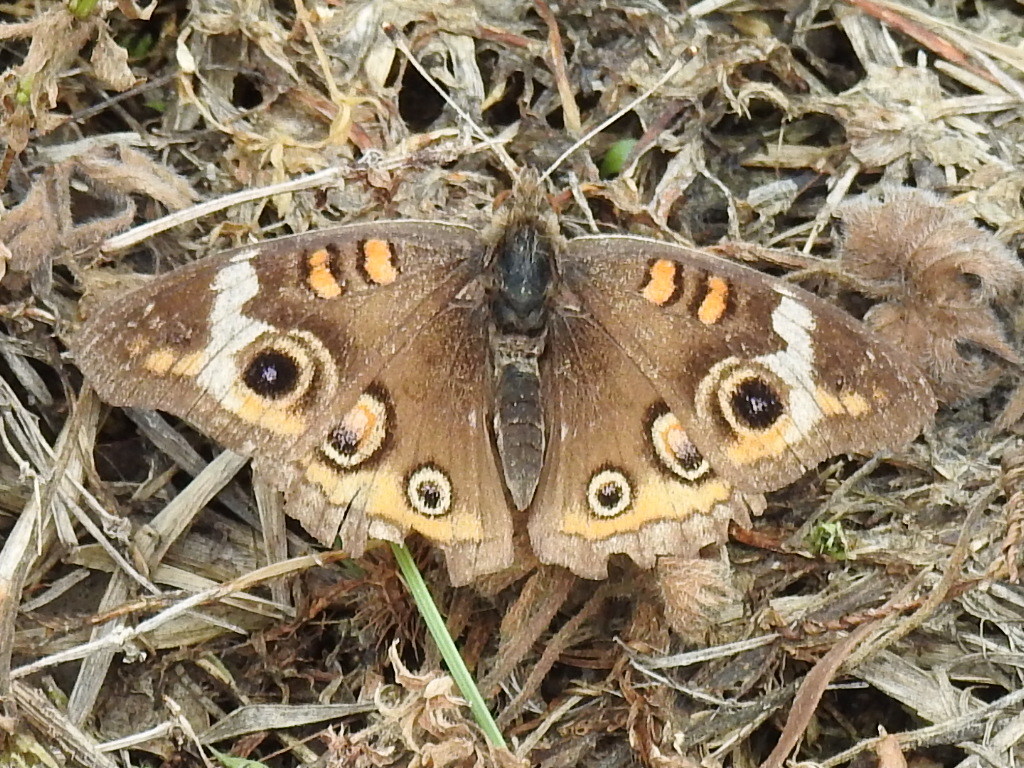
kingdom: Animalia
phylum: Arthropoda
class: Insecta
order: Lepidoptera
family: Nymphalidae
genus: Junonia
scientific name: Junonia coenia
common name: Common buckeye
